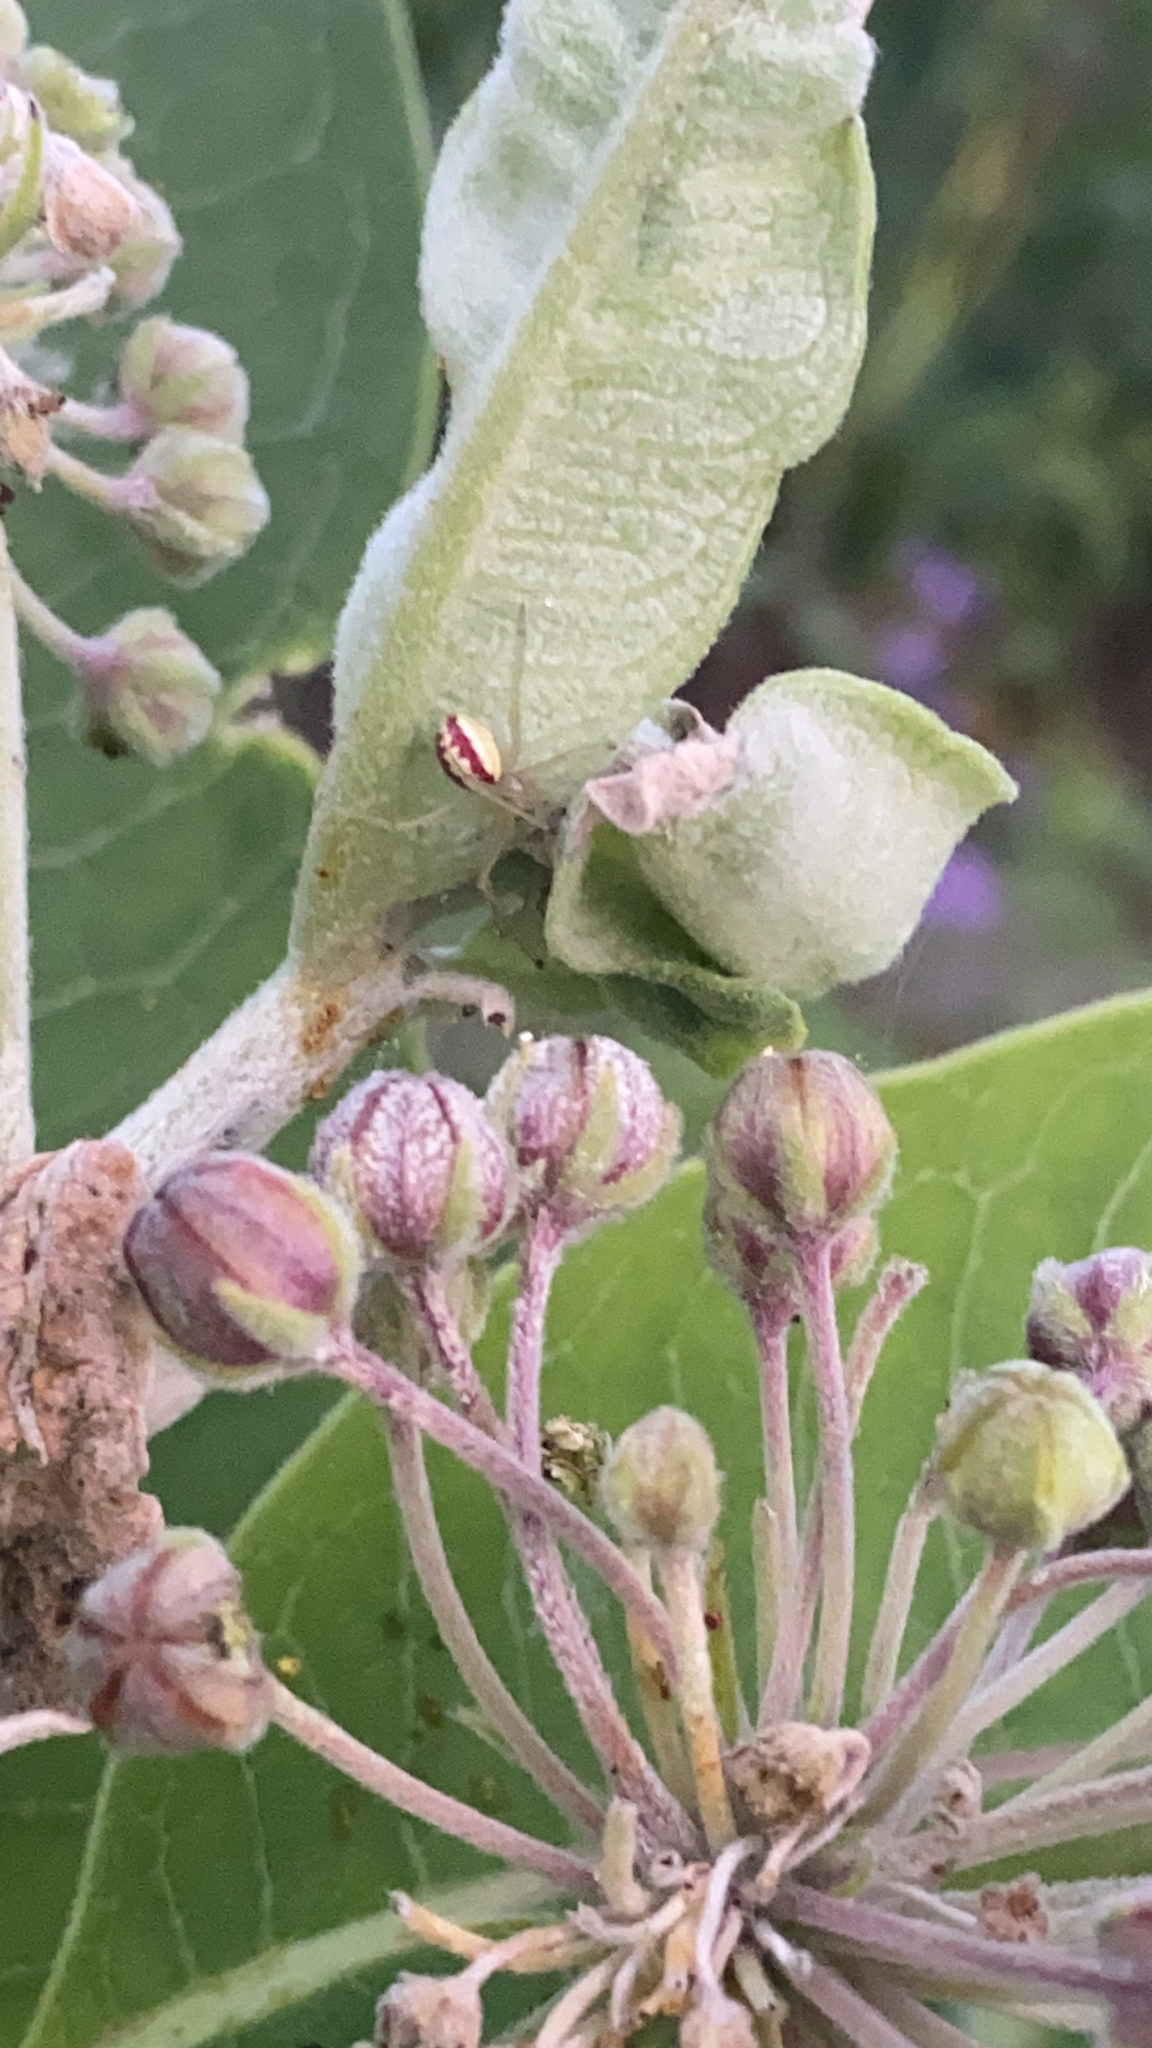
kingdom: Animalia
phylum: Arthropoda
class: Arachnida
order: Araneae
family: Theridiidae
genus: Enoplognatha
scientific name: Enoplognatha ovata
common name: Common candy-striped spider
